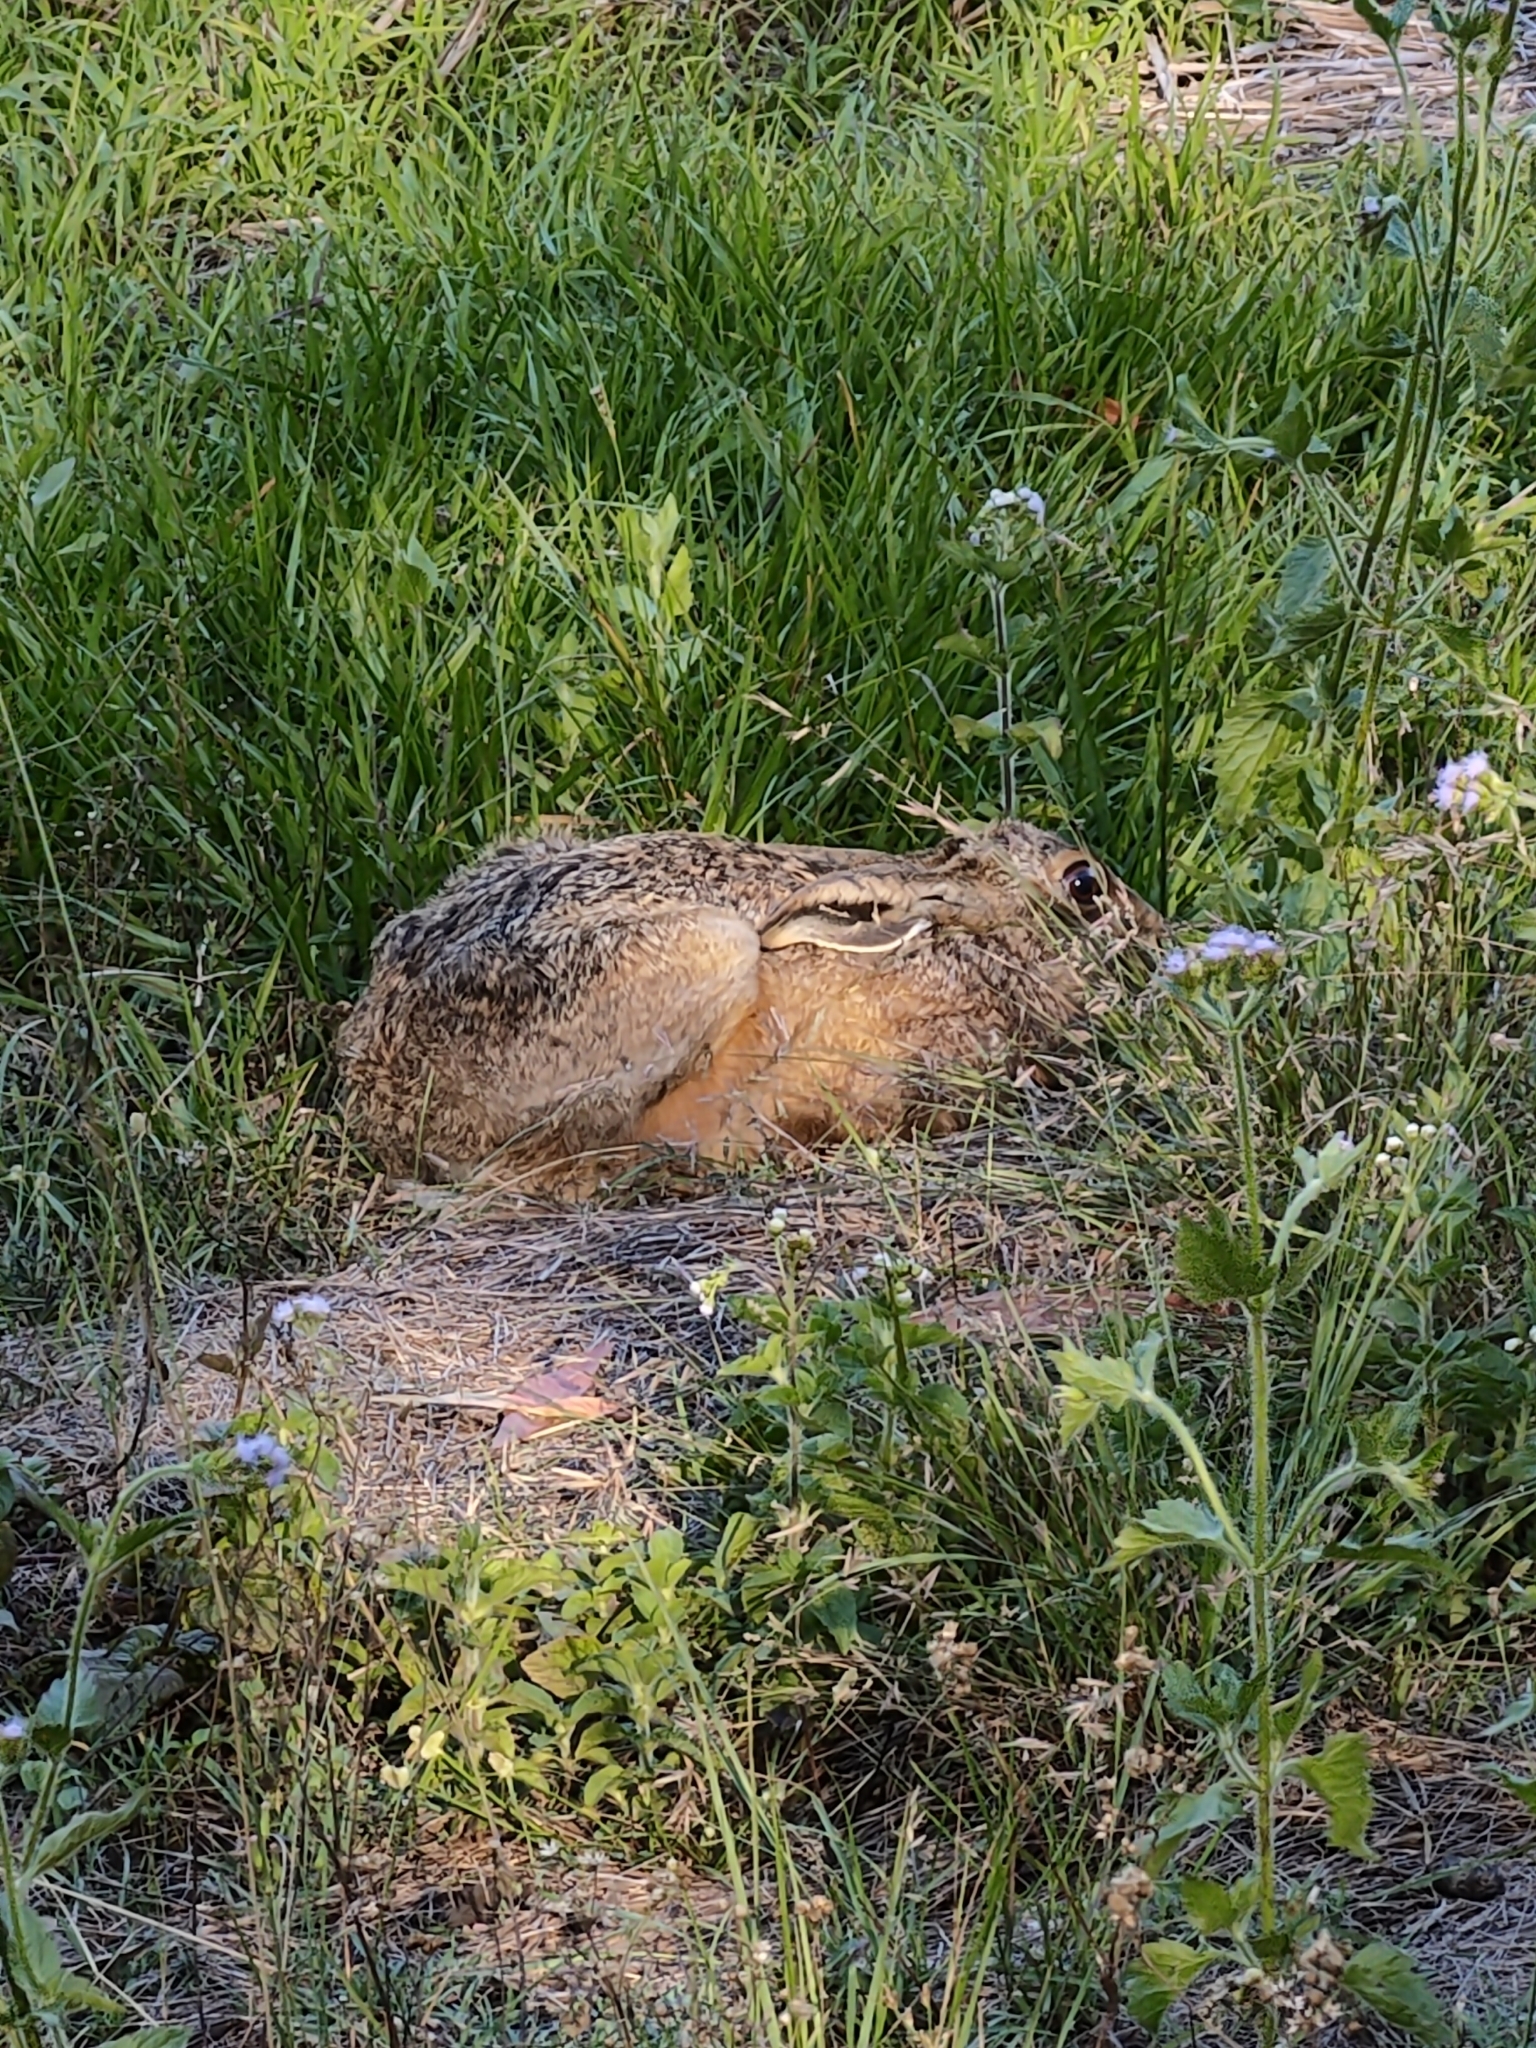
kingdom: Animalia
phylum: Chordata
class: Mammalia
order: Lagomorpha
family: Leporidae
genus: Lepus
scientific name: Lepus europaeus
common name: European hare
